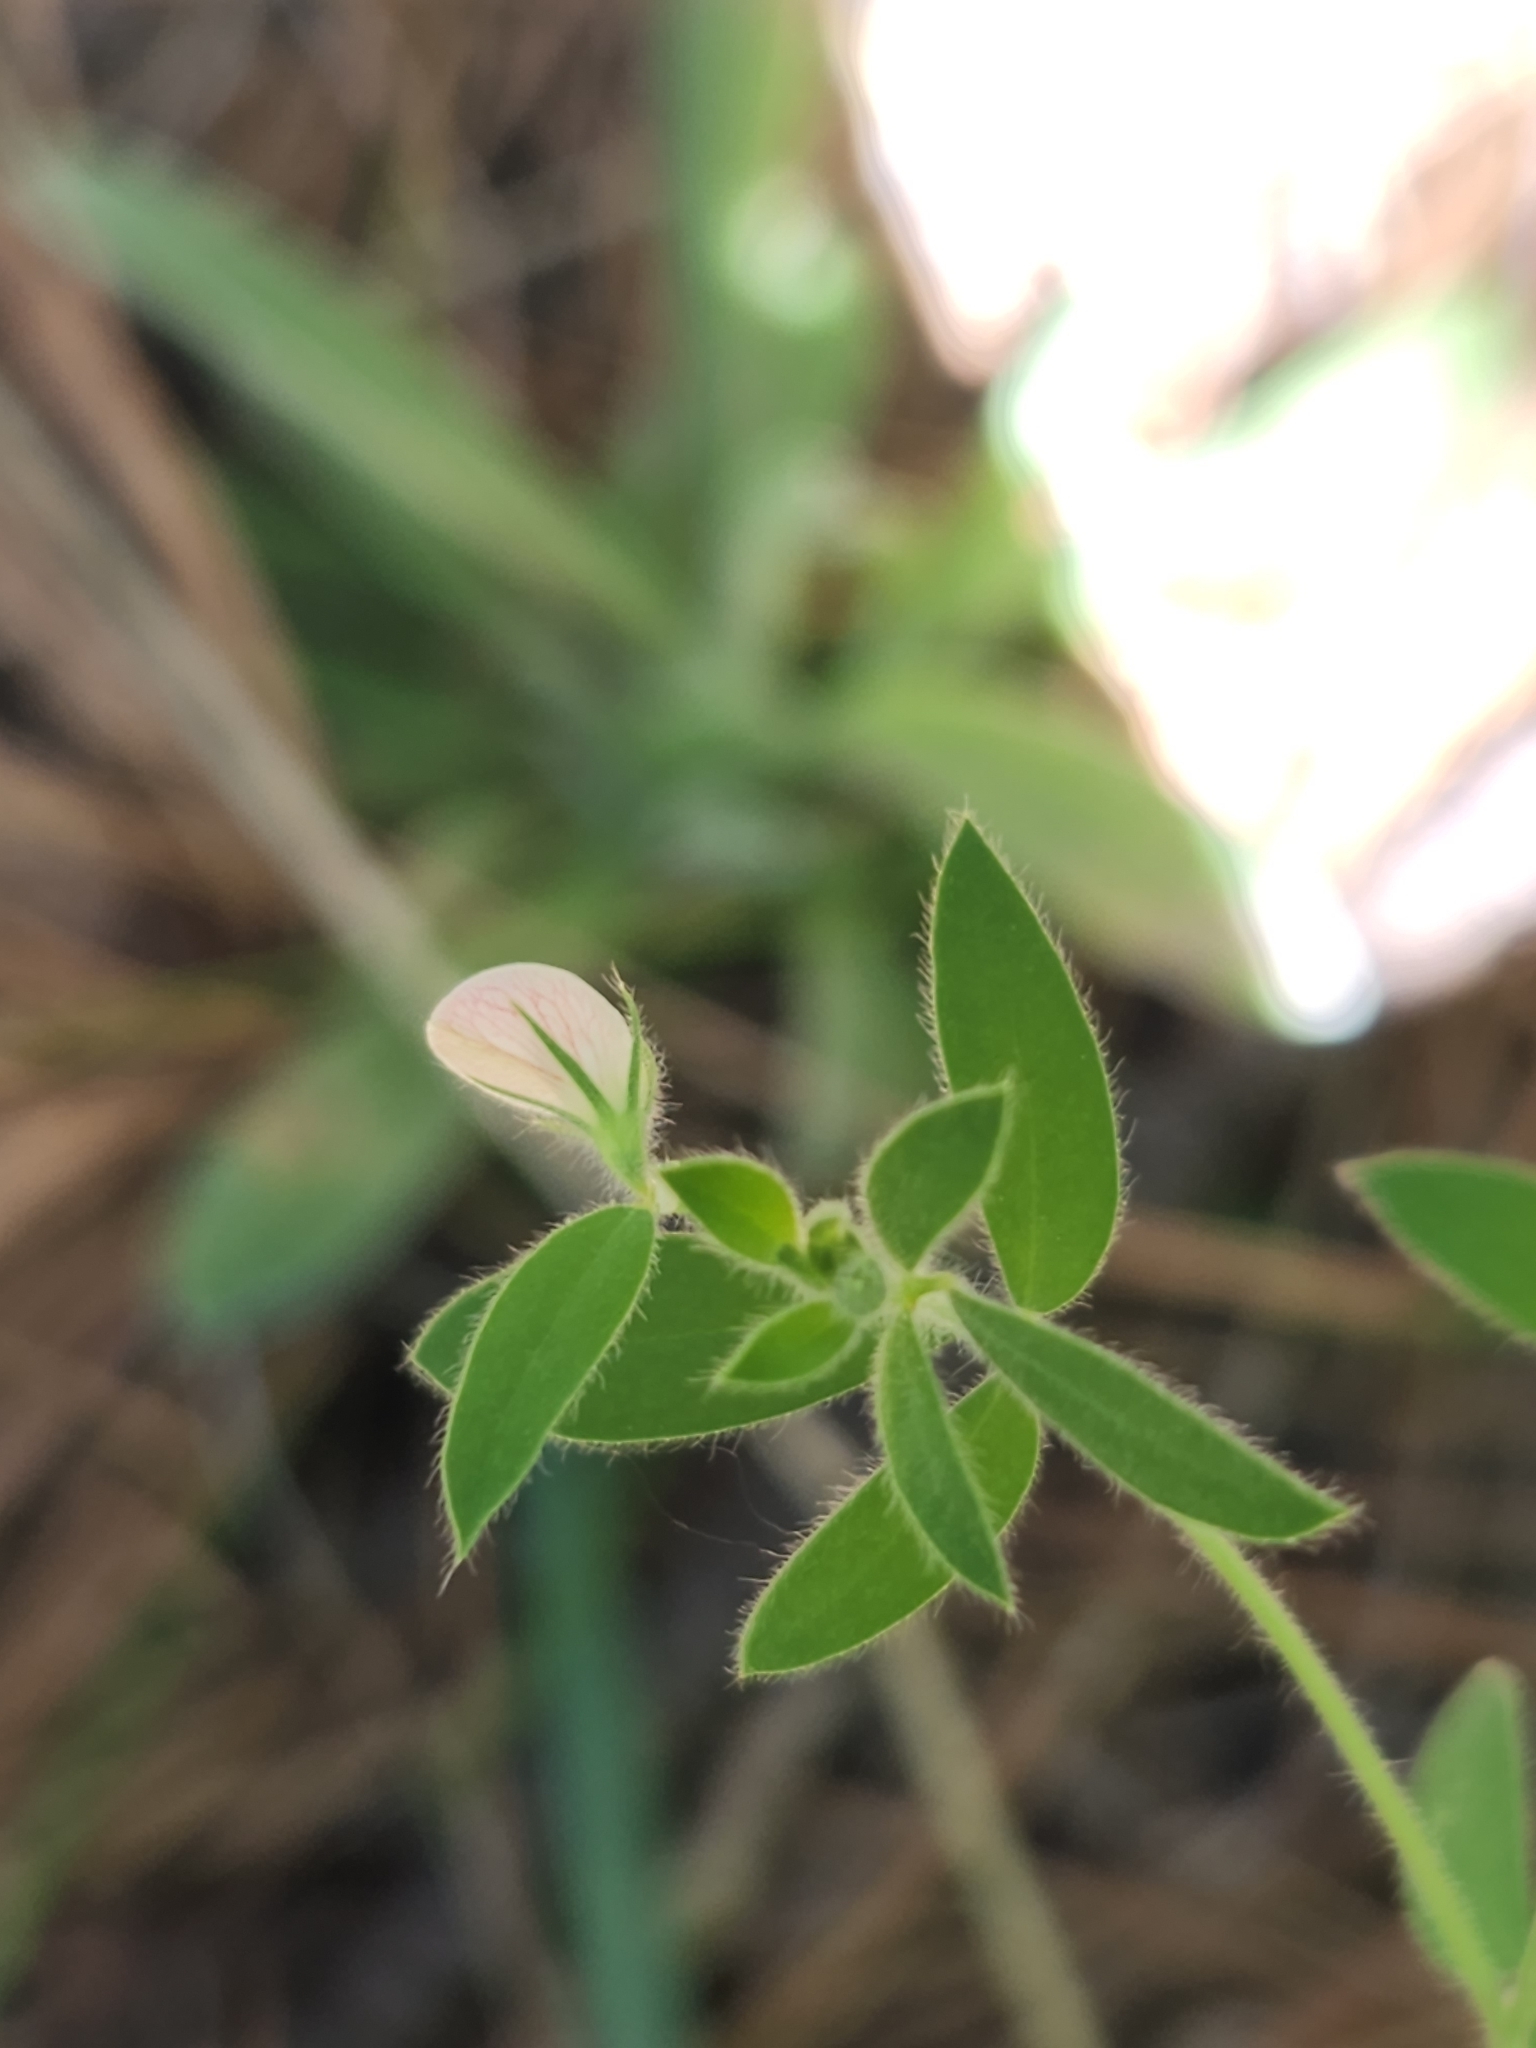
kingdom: Plantae
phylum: Tracheophyta
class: Magnoliopsida
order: Fabales
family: Fabaceae
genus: Acmispon
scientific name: Acmispon americanus
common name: American bird's-foot trefoil
